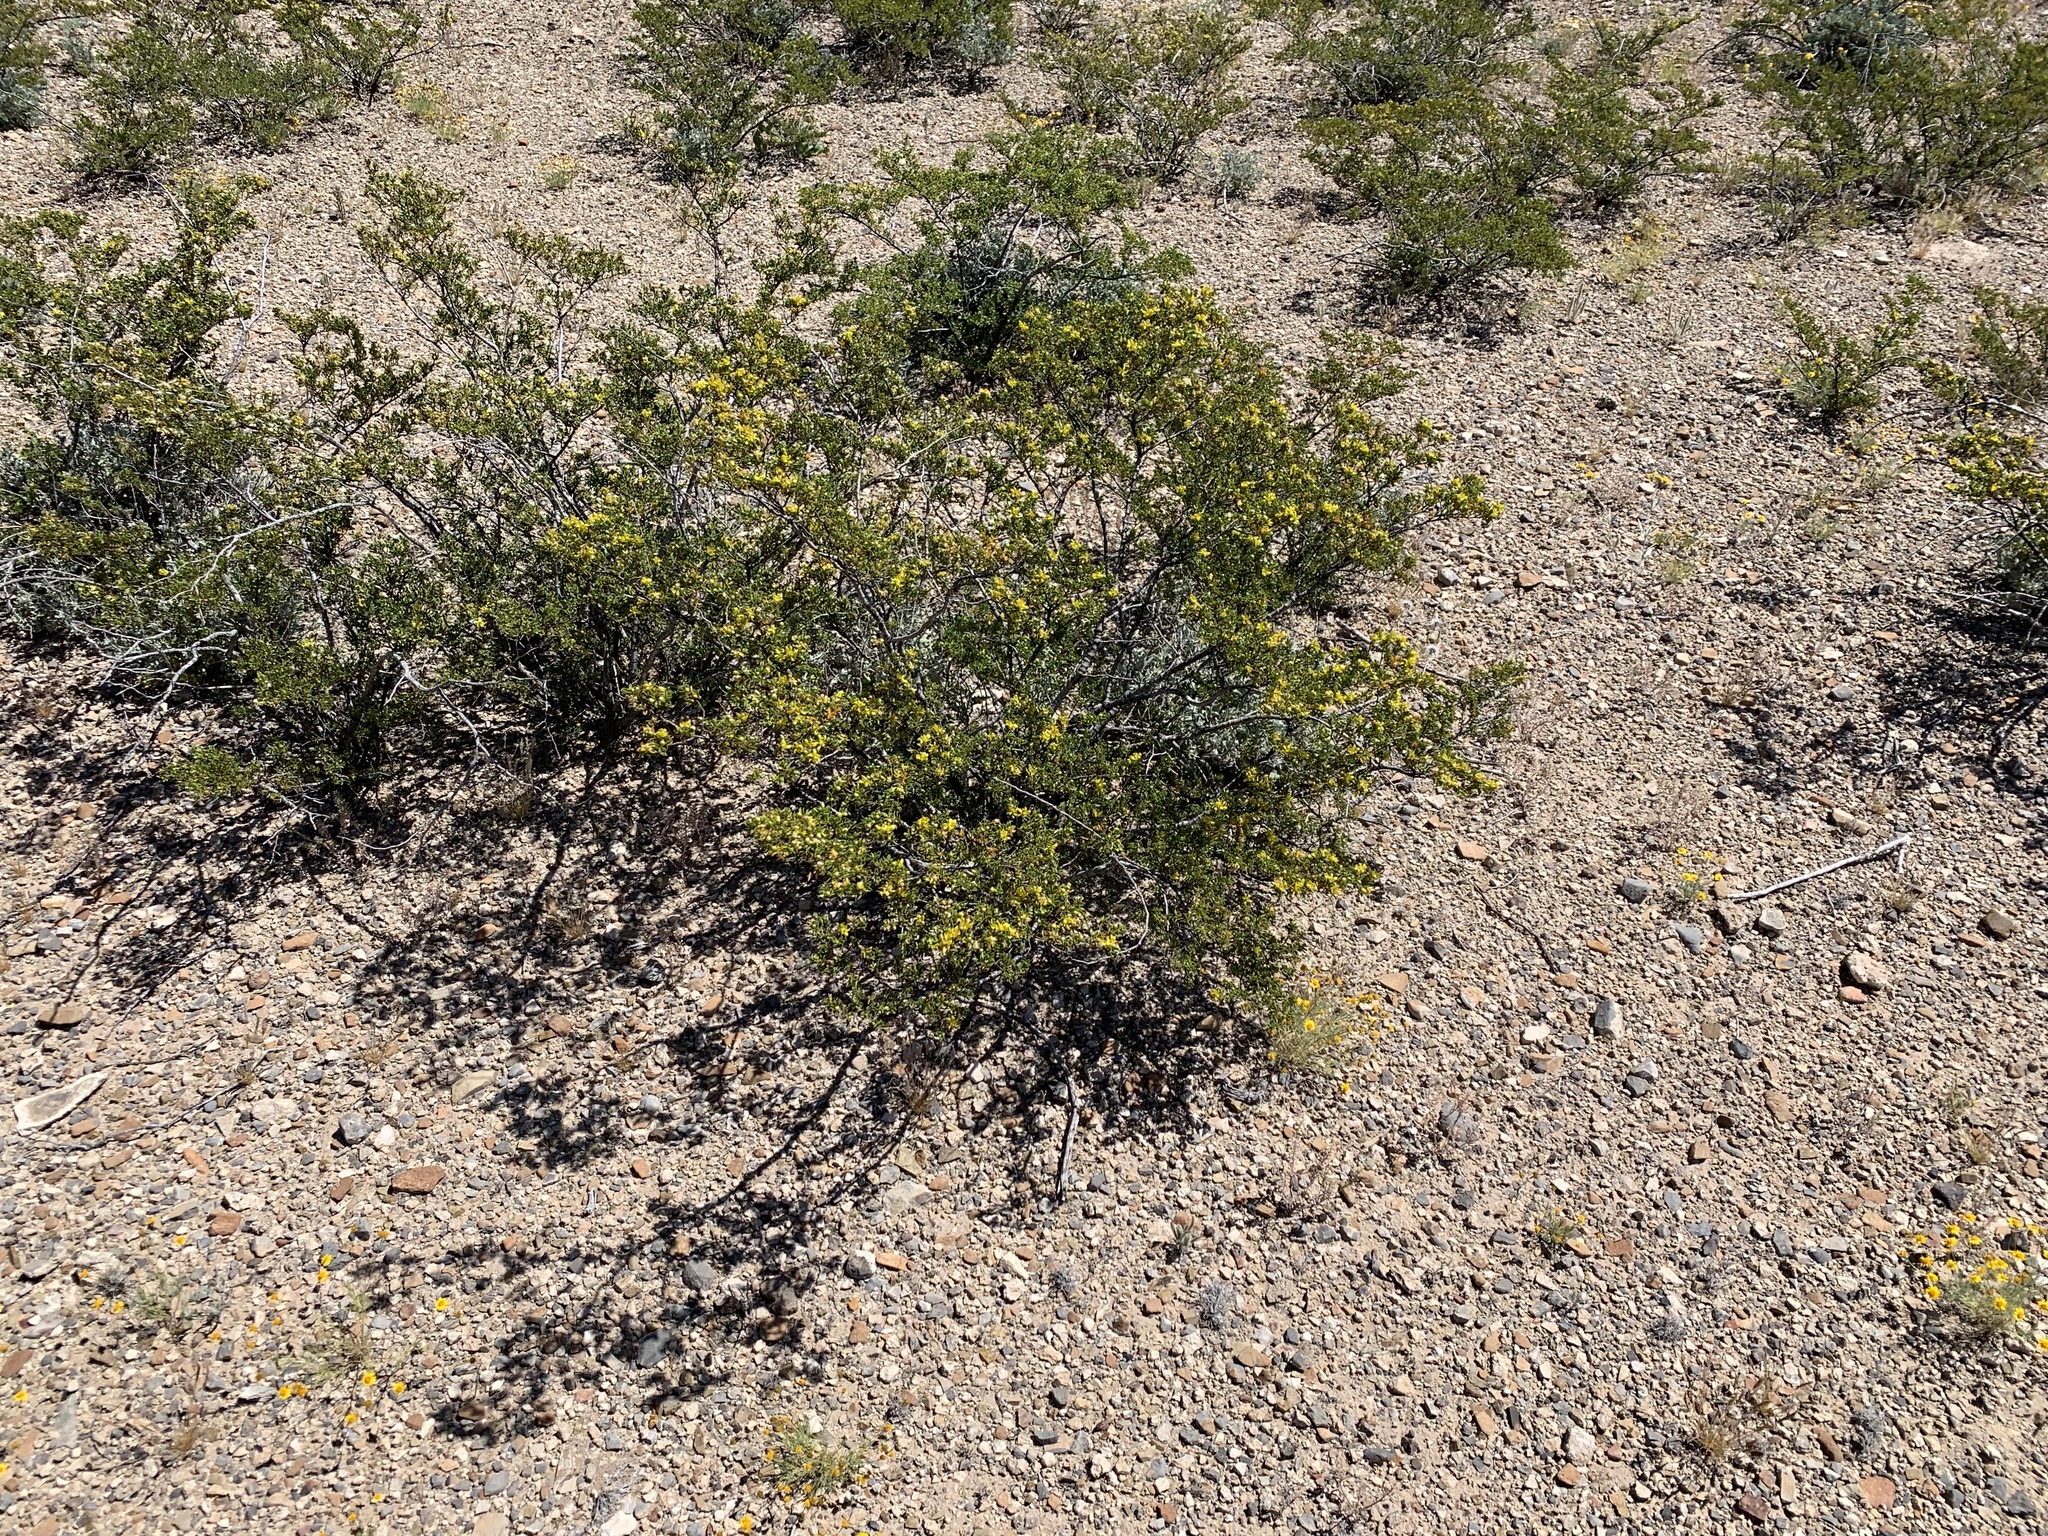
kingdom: Plantae
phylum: Tracheophyta
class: Magnoliopsida
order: Zygophyllales
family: Zygophyllaceae
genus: Larrea
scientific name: Larrea tridentata
